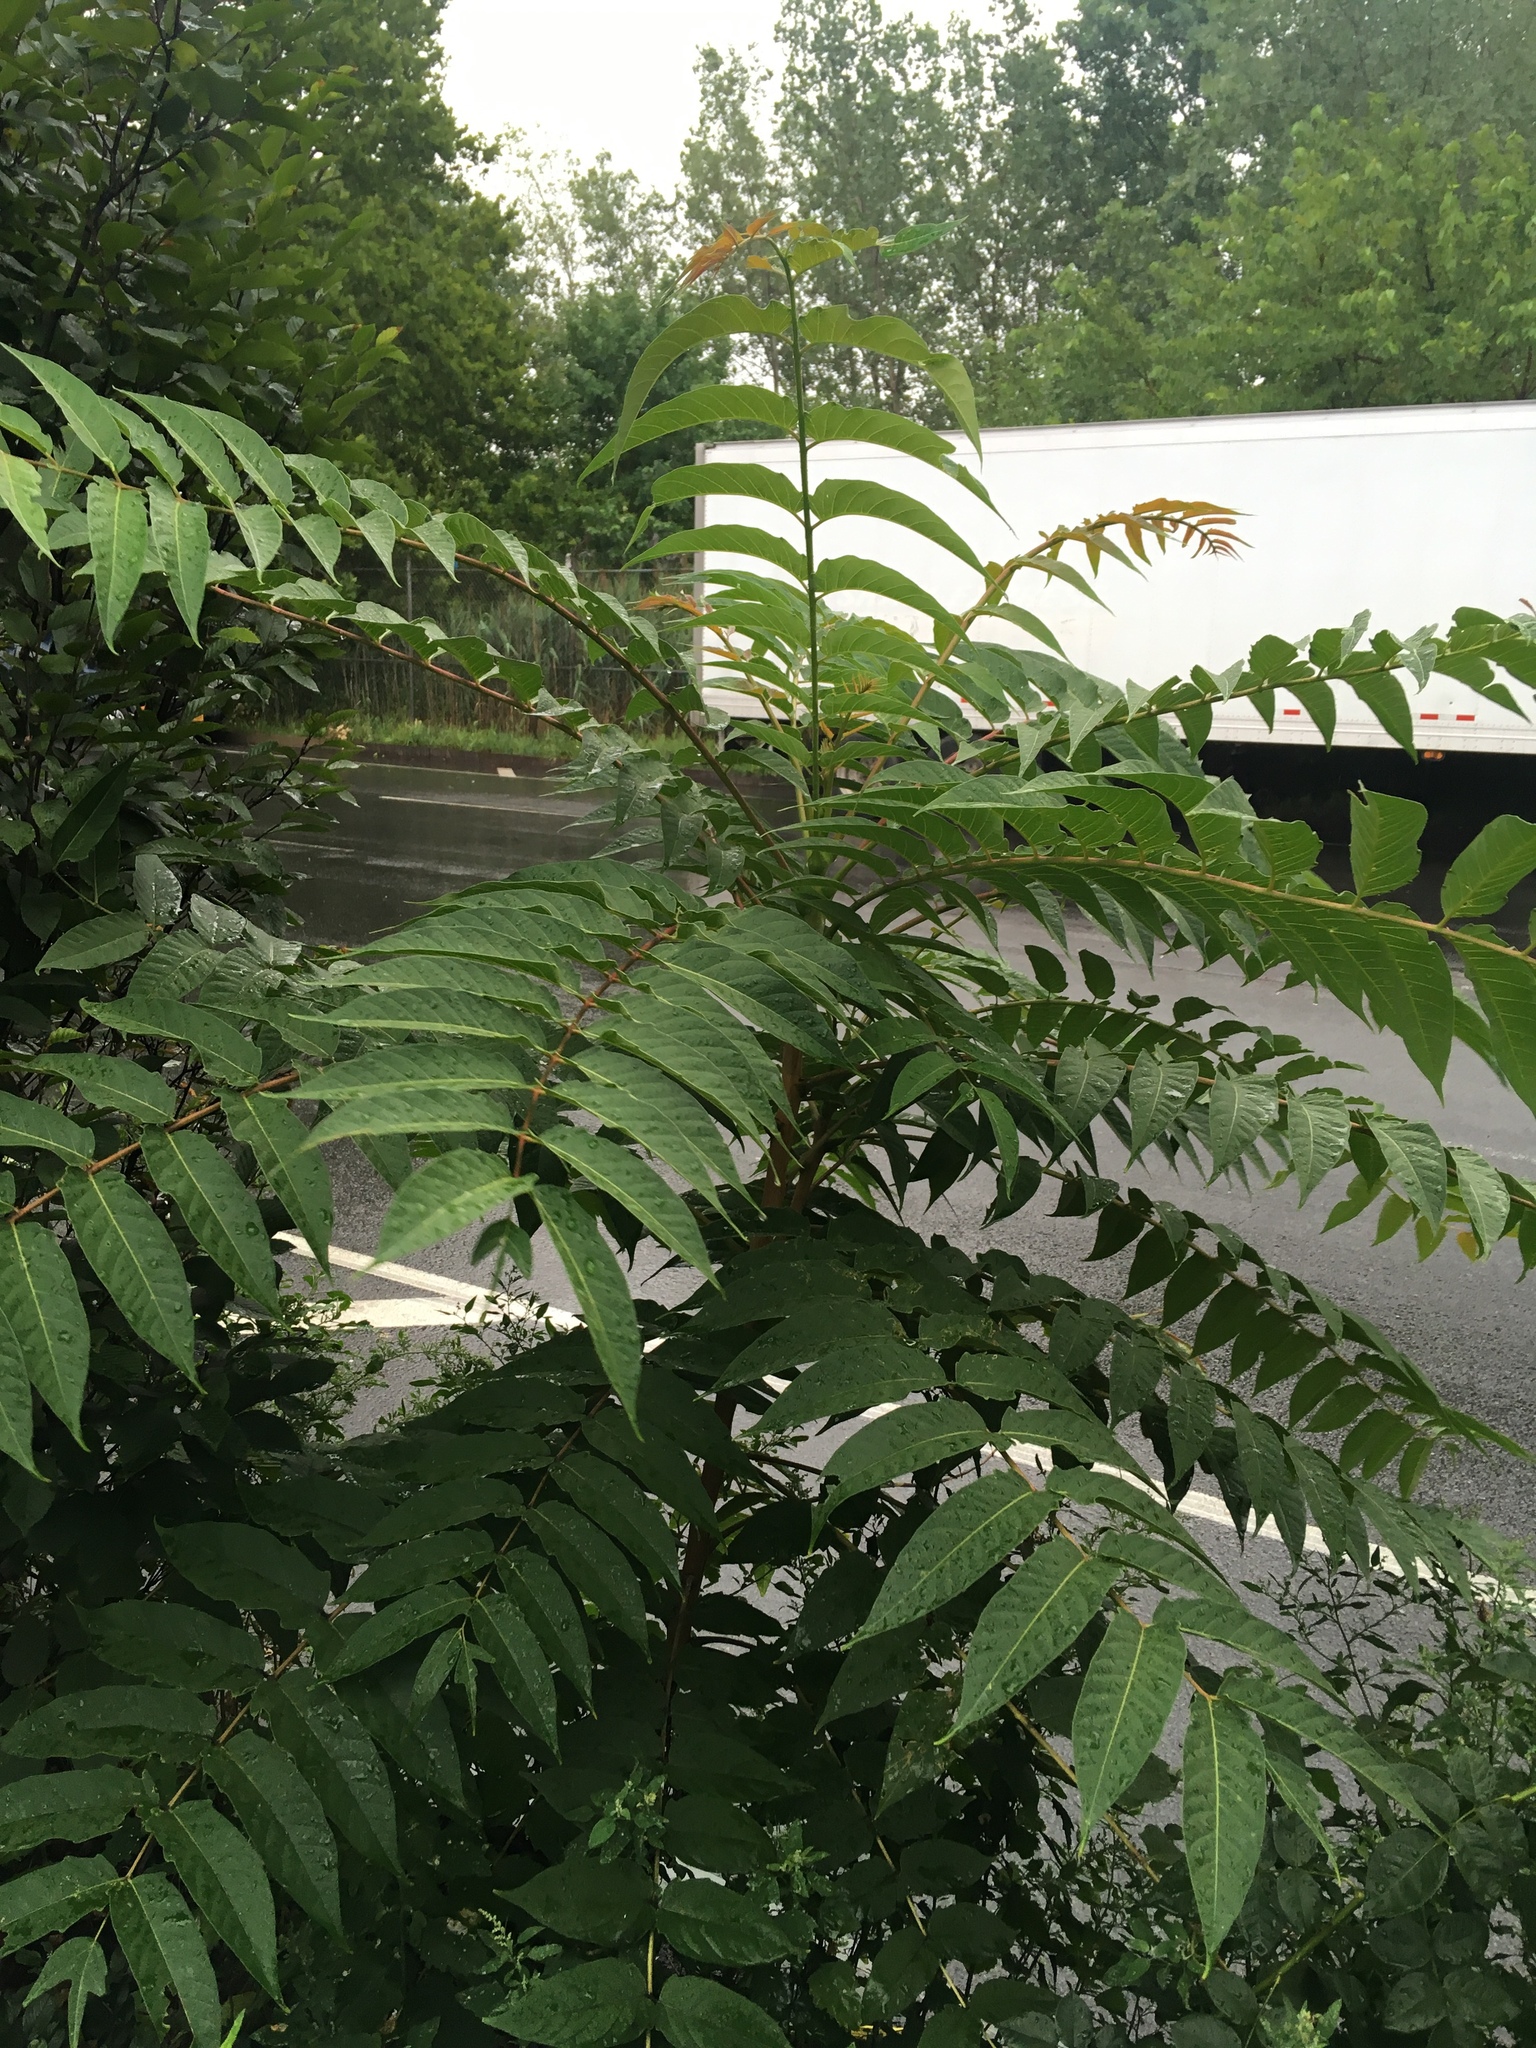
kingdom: Plantae
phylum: Tracheophyta
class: Magnoliopsida
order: Sapindales
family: Simaroubaceae
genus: Ailanthus
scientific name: Ailanthus altissima
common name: Tree-of-heaven
